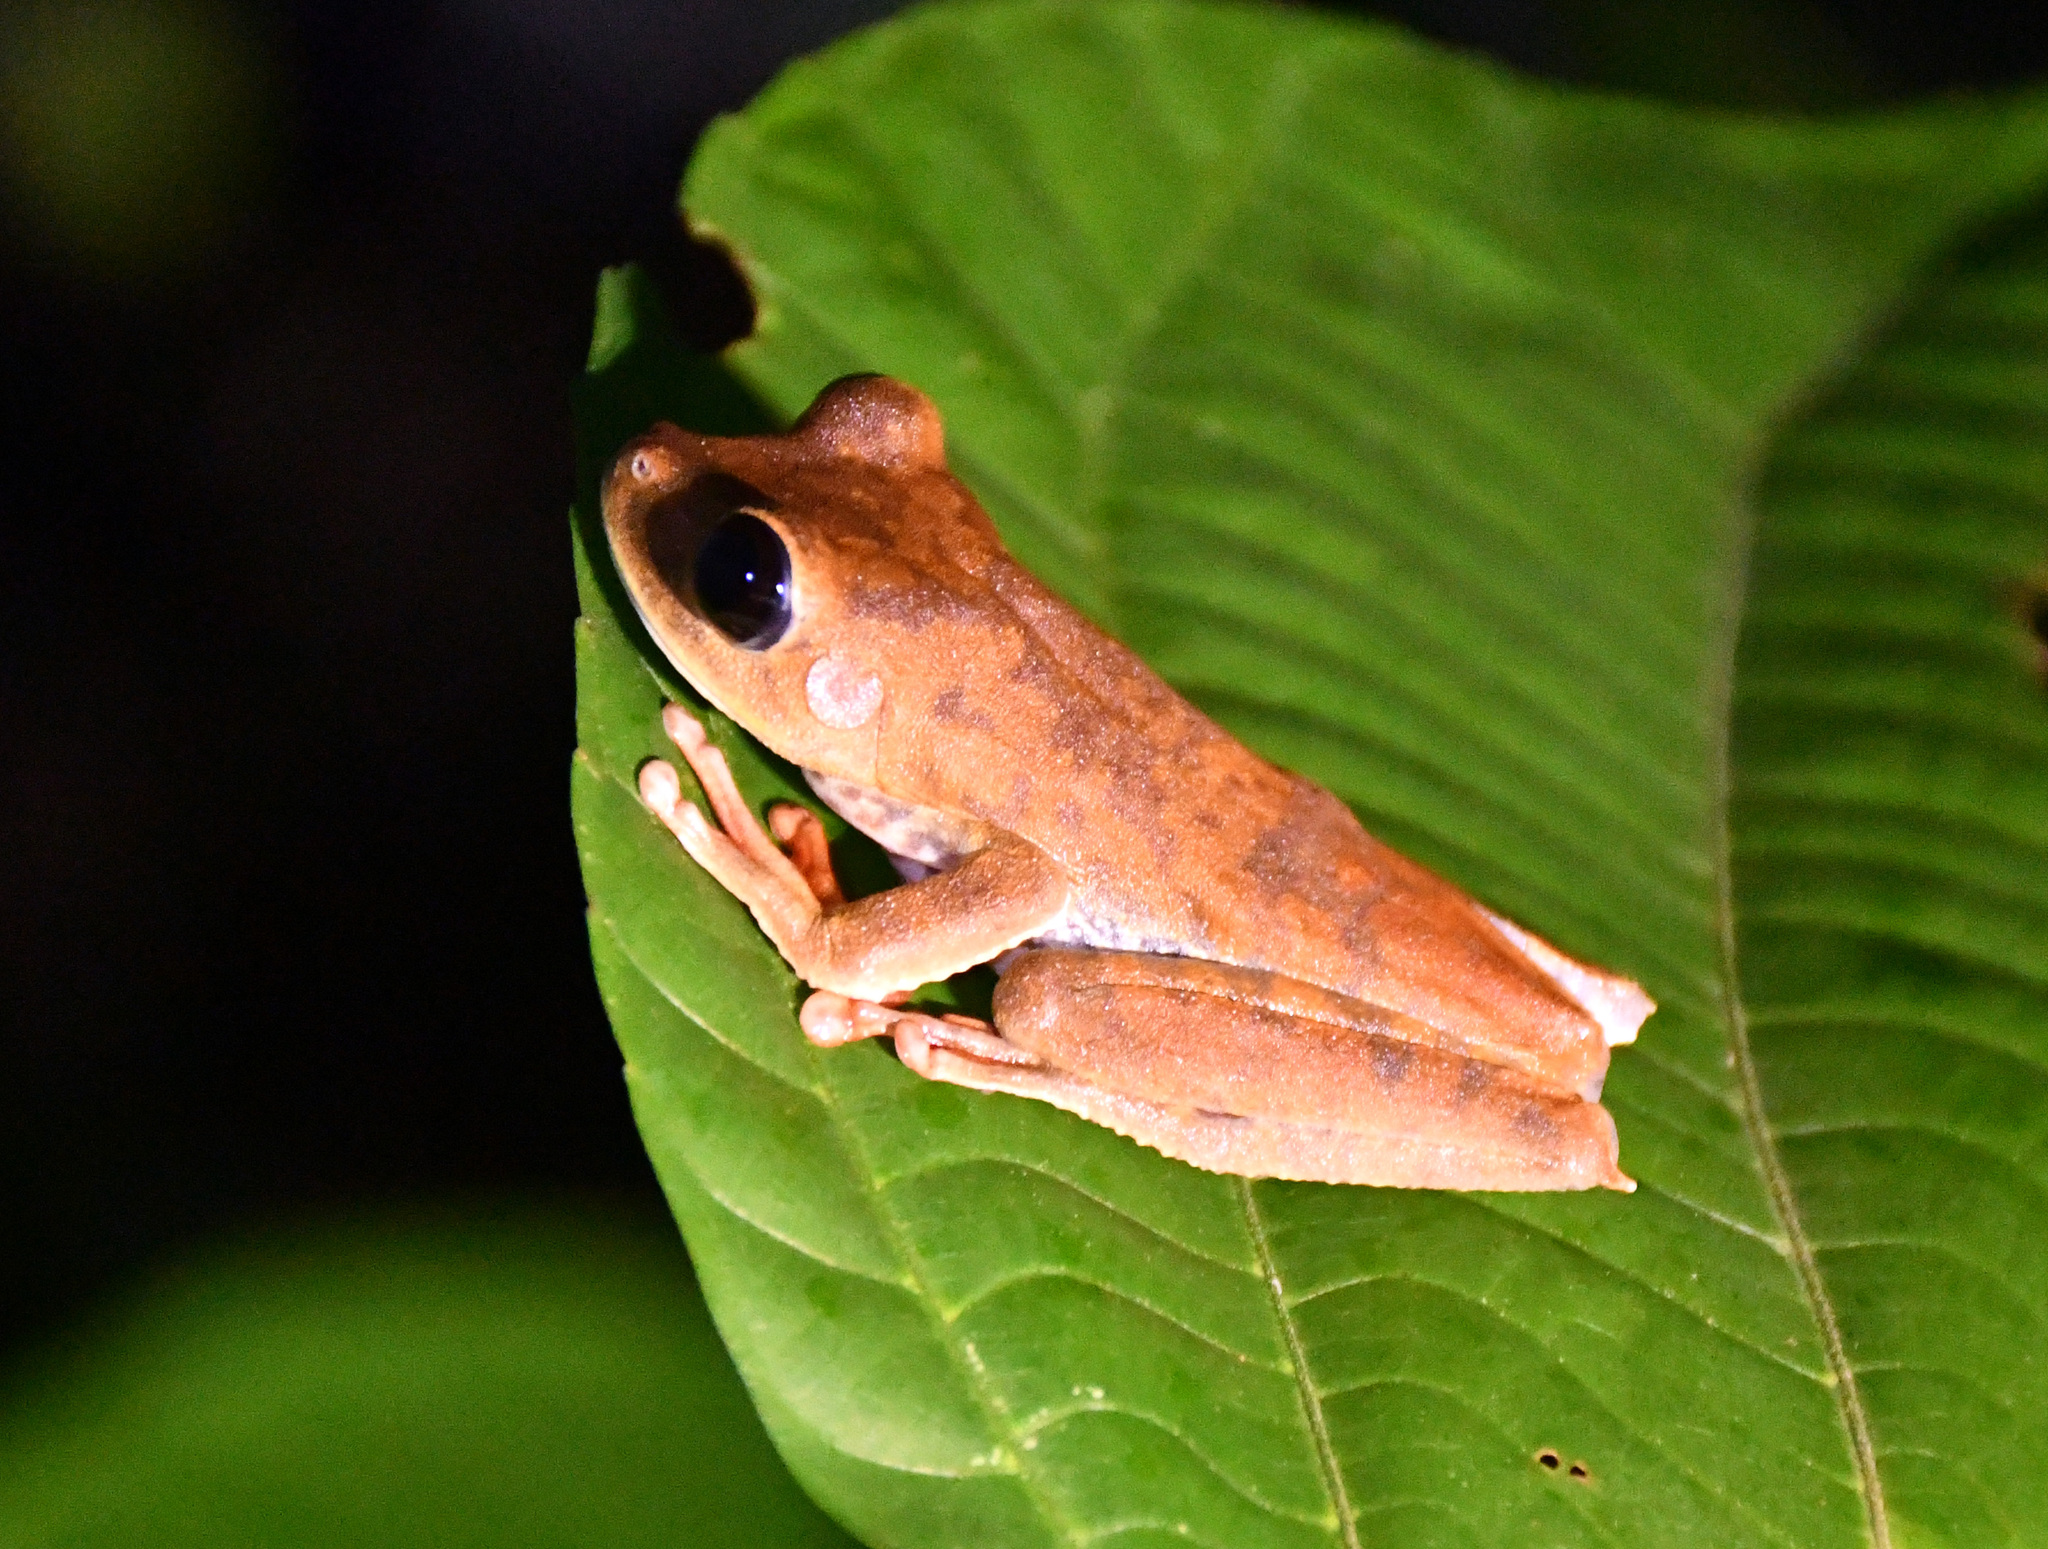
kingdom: Animalia
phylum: Chordata
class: Amphibia
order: Anura
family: Hylidae
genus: Boana
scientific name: Boana geographica
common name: Map treefrog
